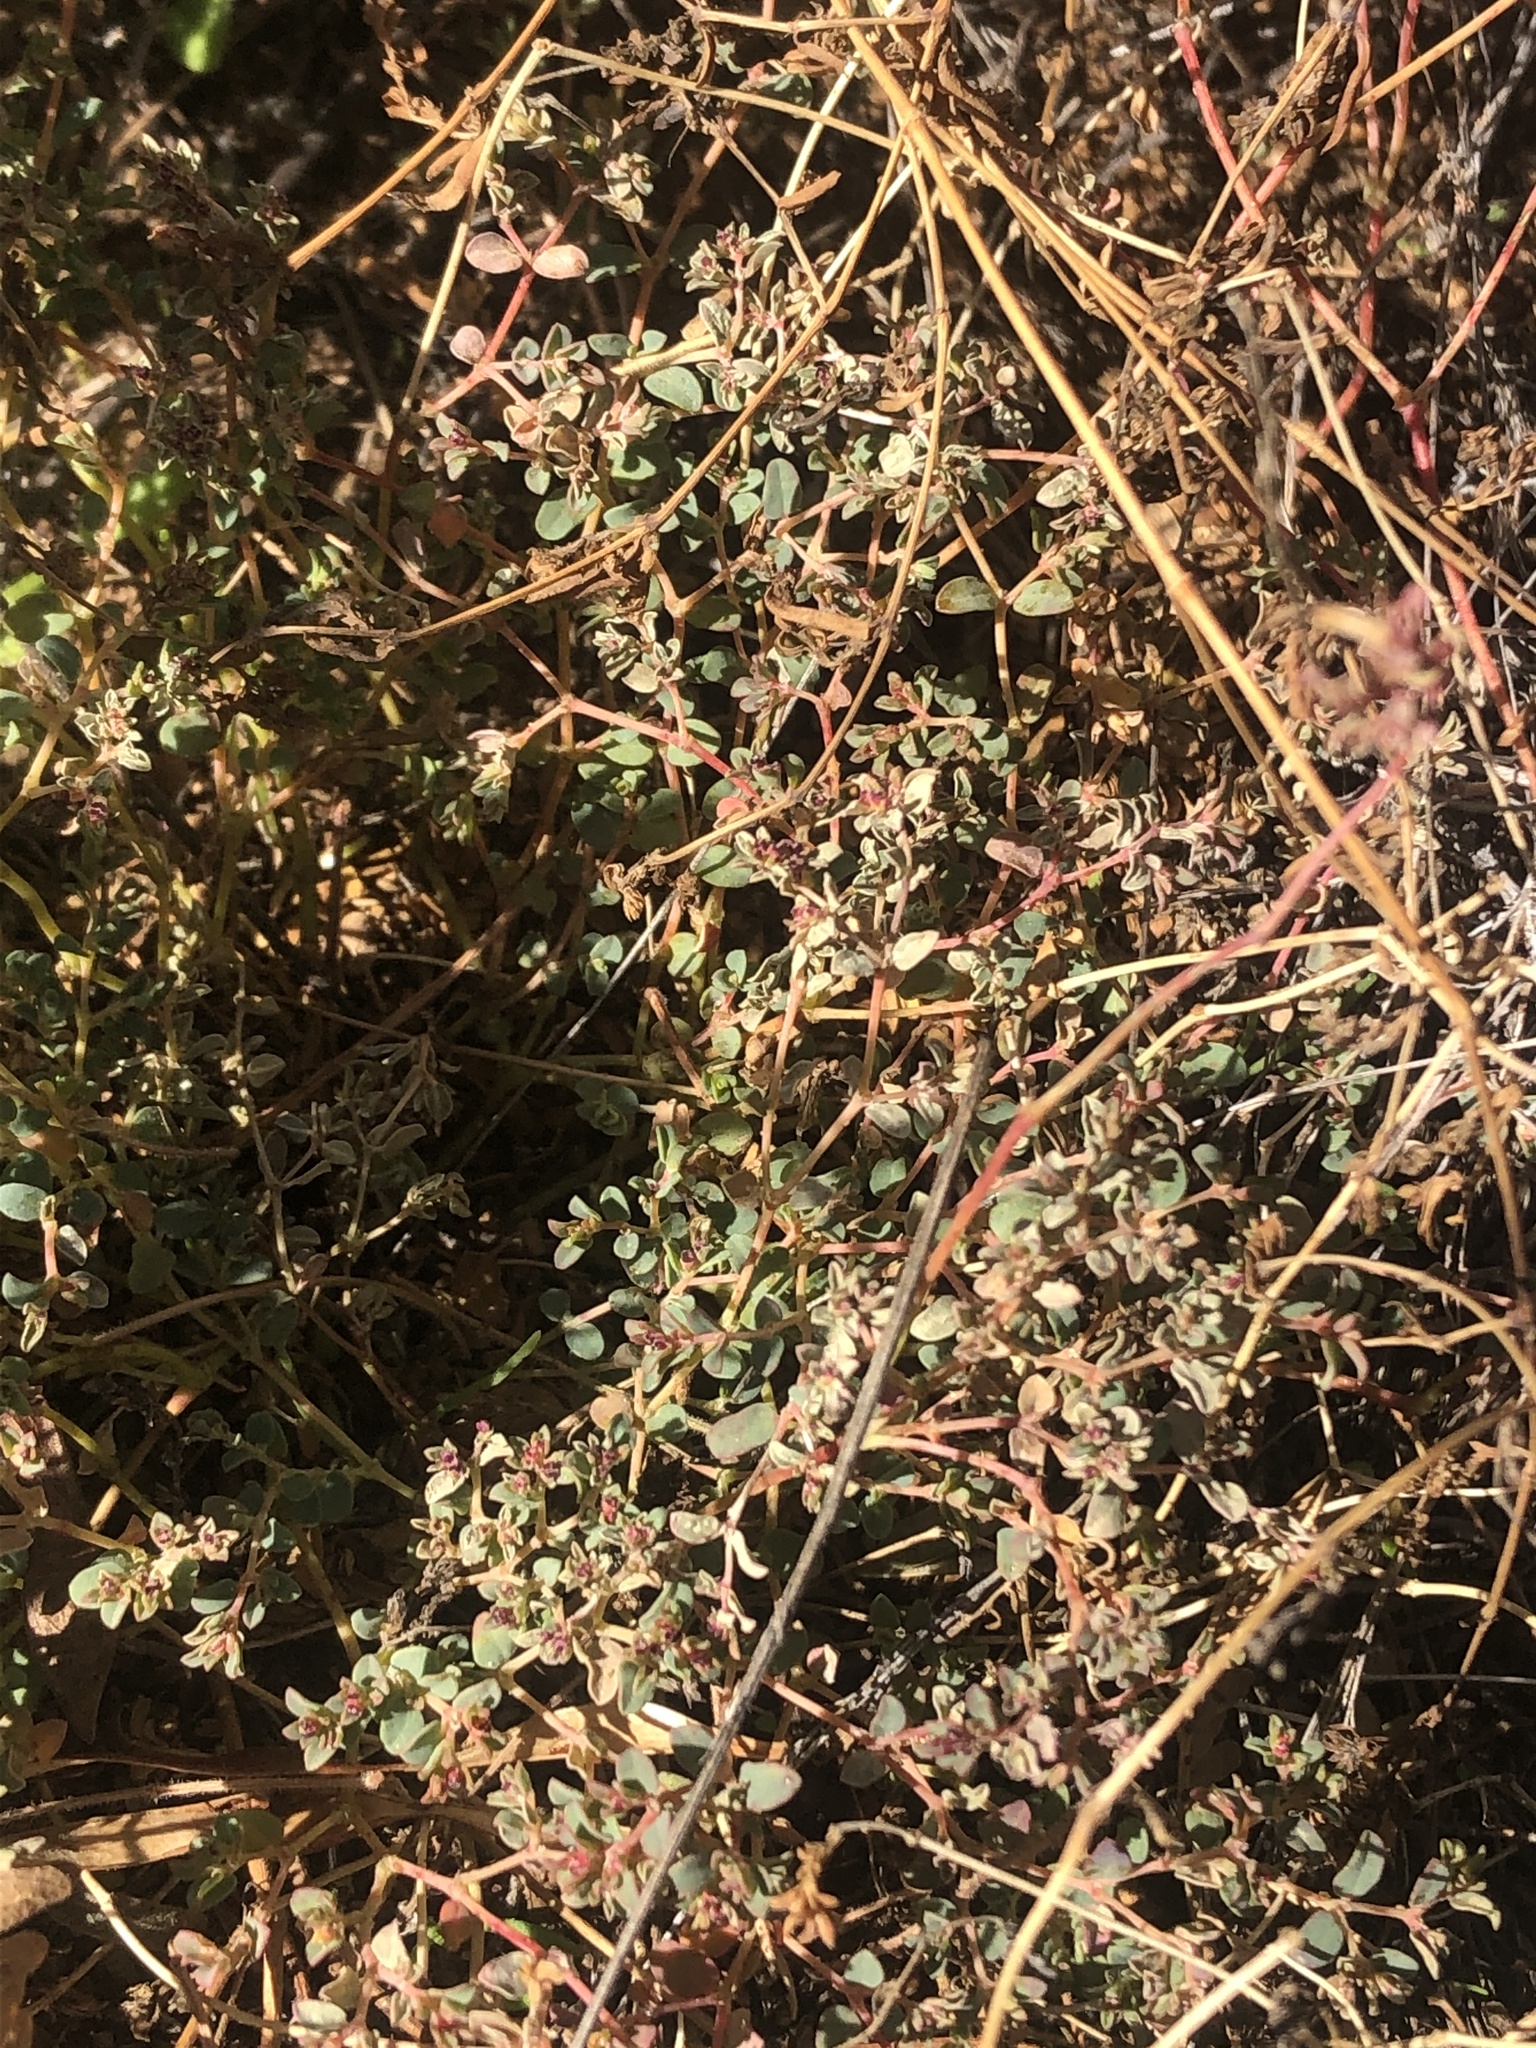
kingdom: Plantae
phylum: Tracheophyta
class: Magnoliopsida
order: Malpighiales
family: Euphorbiaceae
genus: Euphorbia
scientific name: Euphorbia polycarpa
